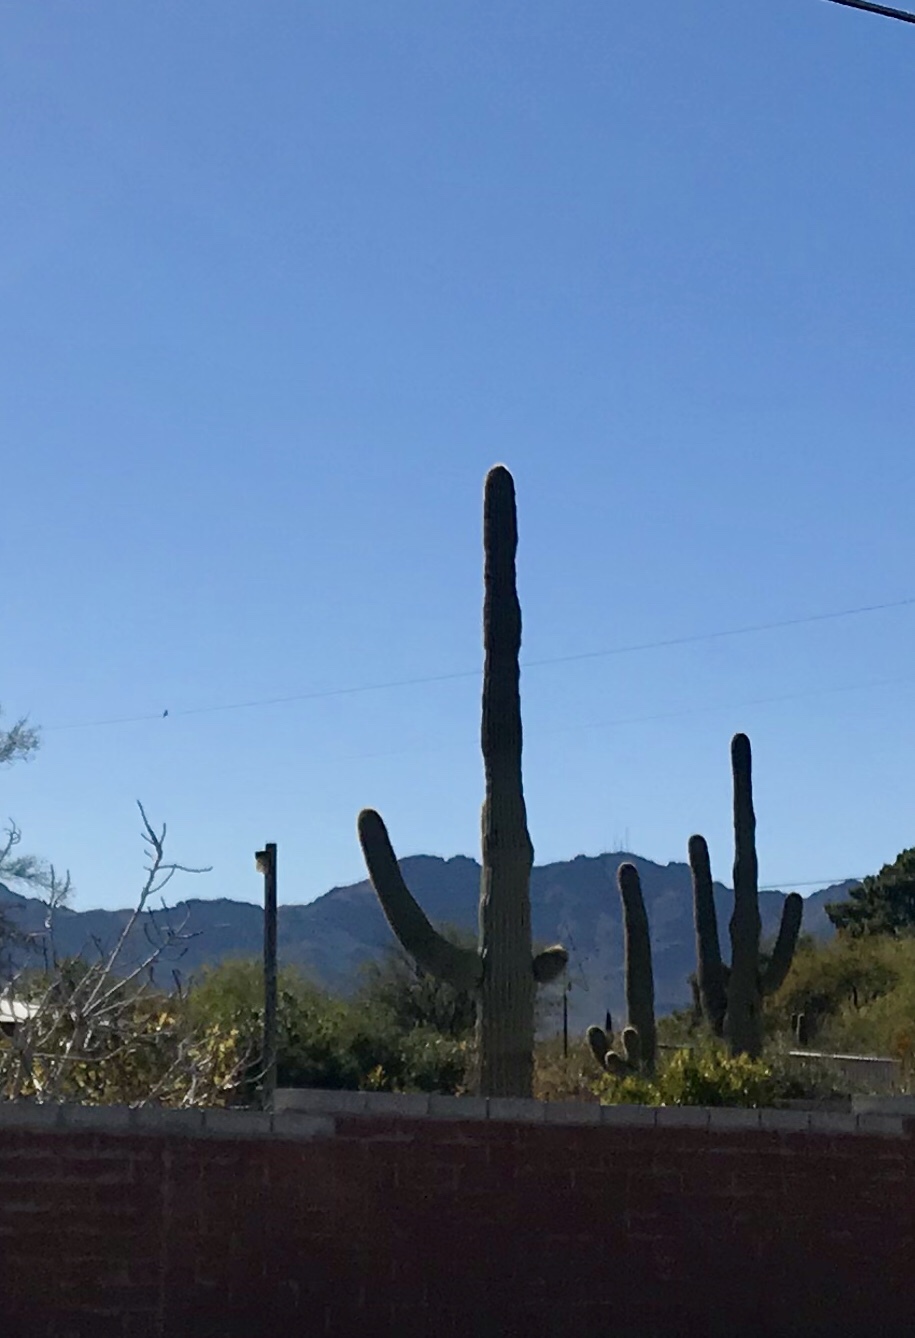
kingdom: Plantae
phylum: Tracheophyta
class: Magnoliopsida
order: Caryophyllales
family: Cactaceae
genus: Carnegiea
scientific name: Carnegiea gigantea
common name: Saguaro
